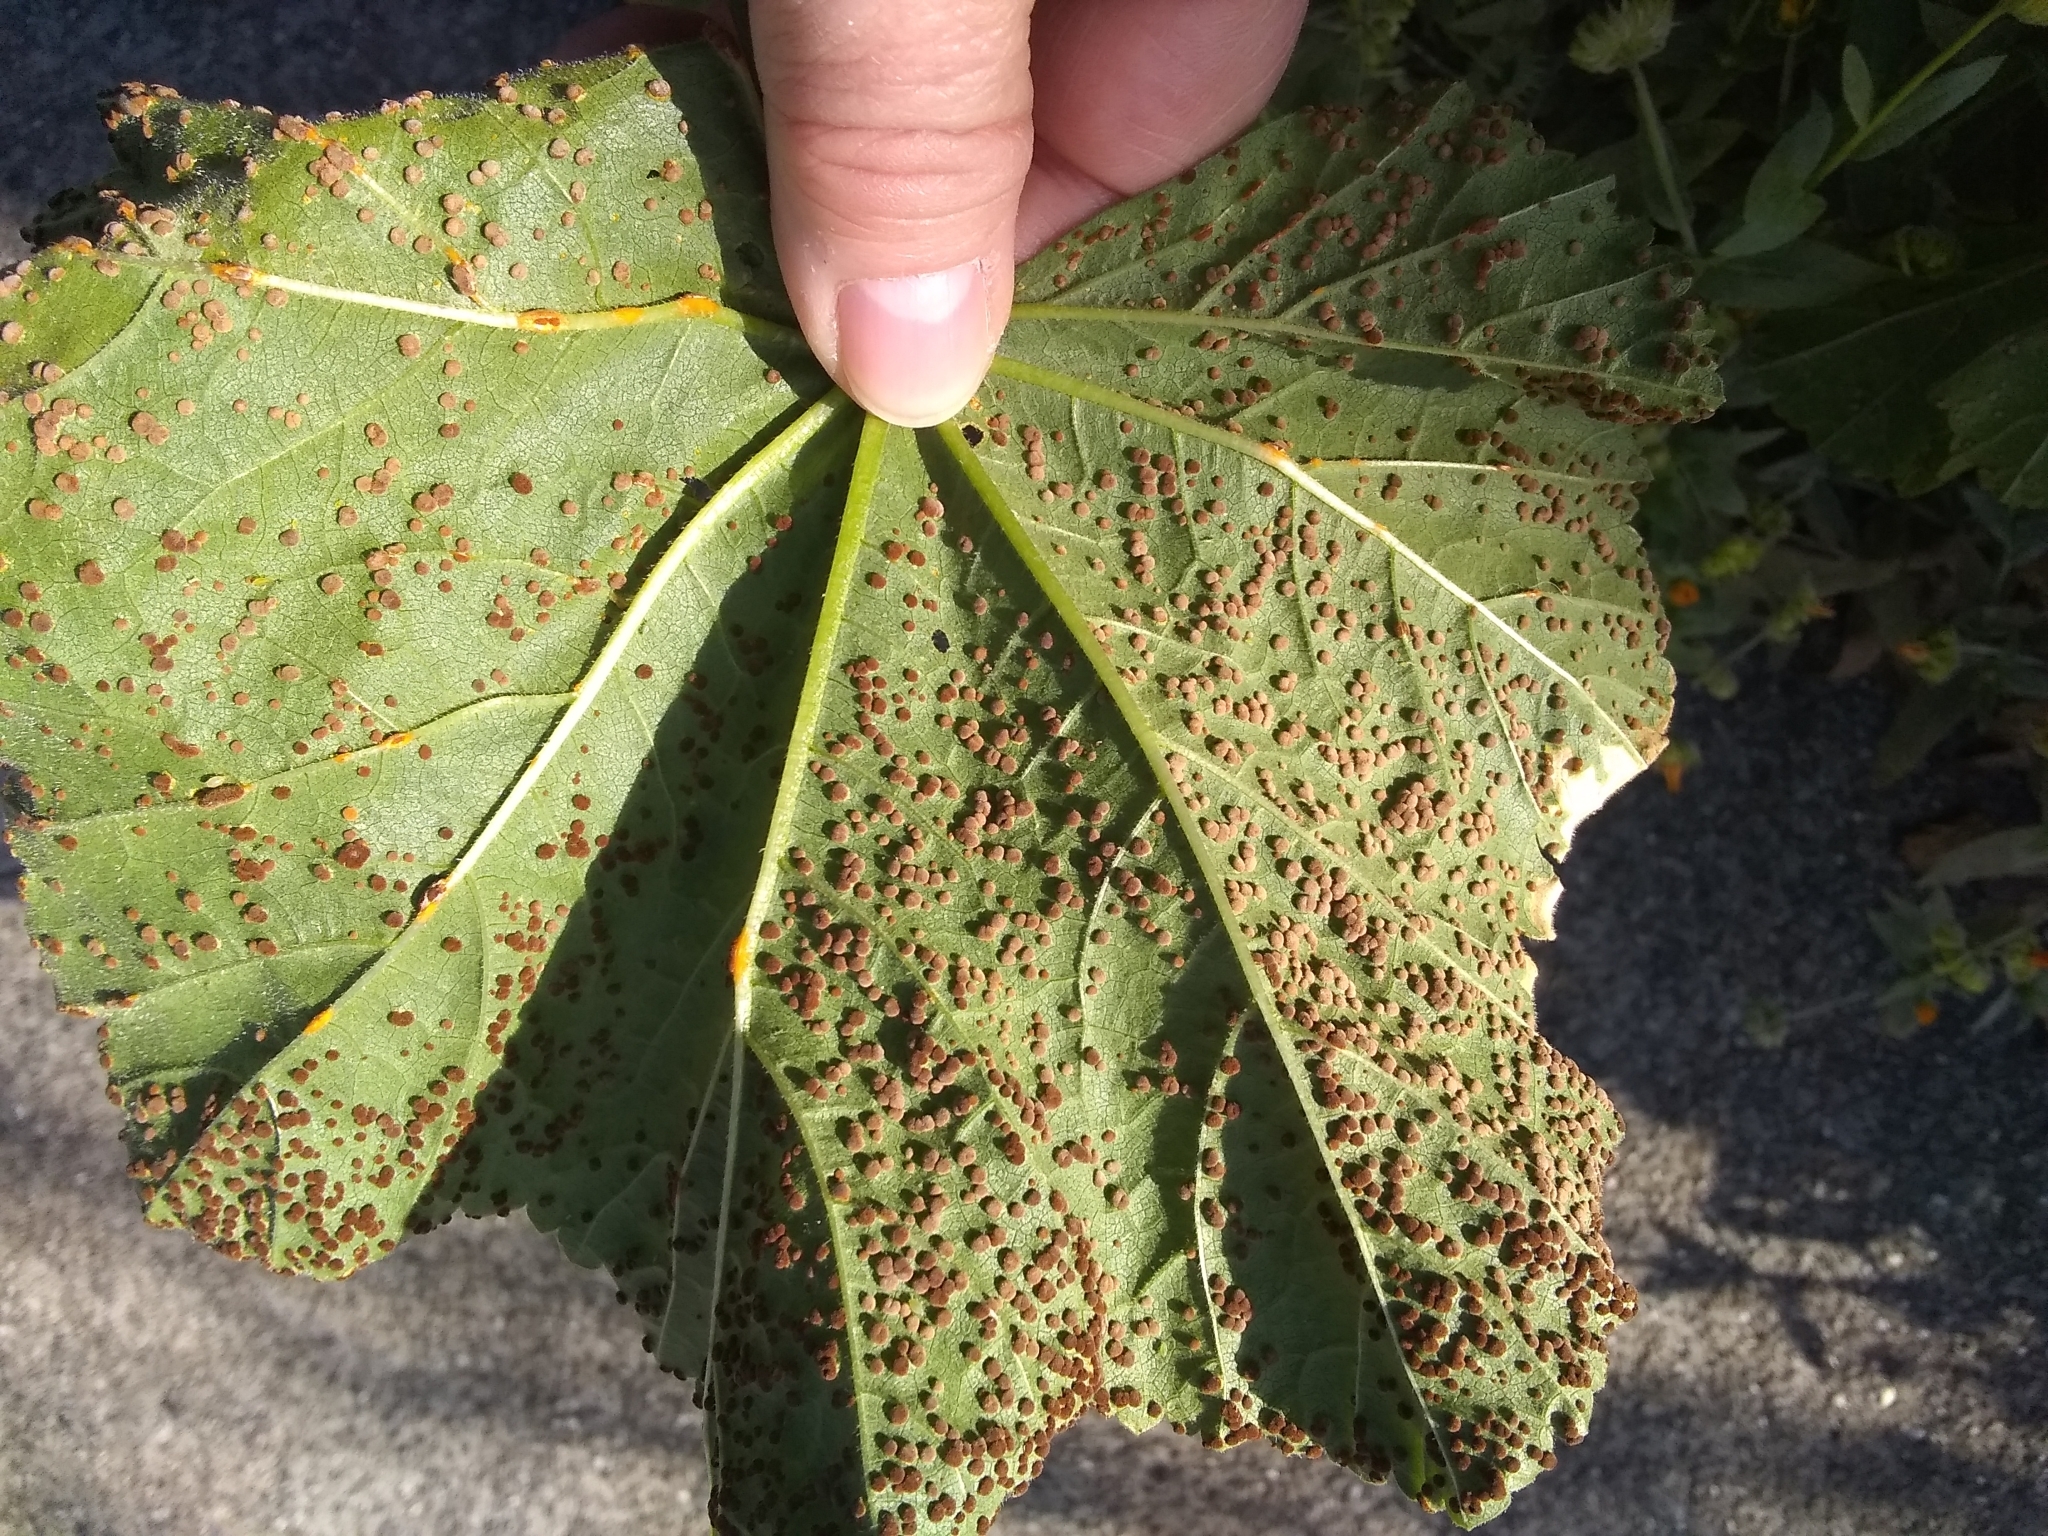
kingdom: Fungi
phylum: Basidiomycota
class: Pucciniomycetes
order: Pucciniales
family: Pucciniaceae
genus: Puccinia
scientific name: Puccinia malvacearum
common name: Hollyhock rust
